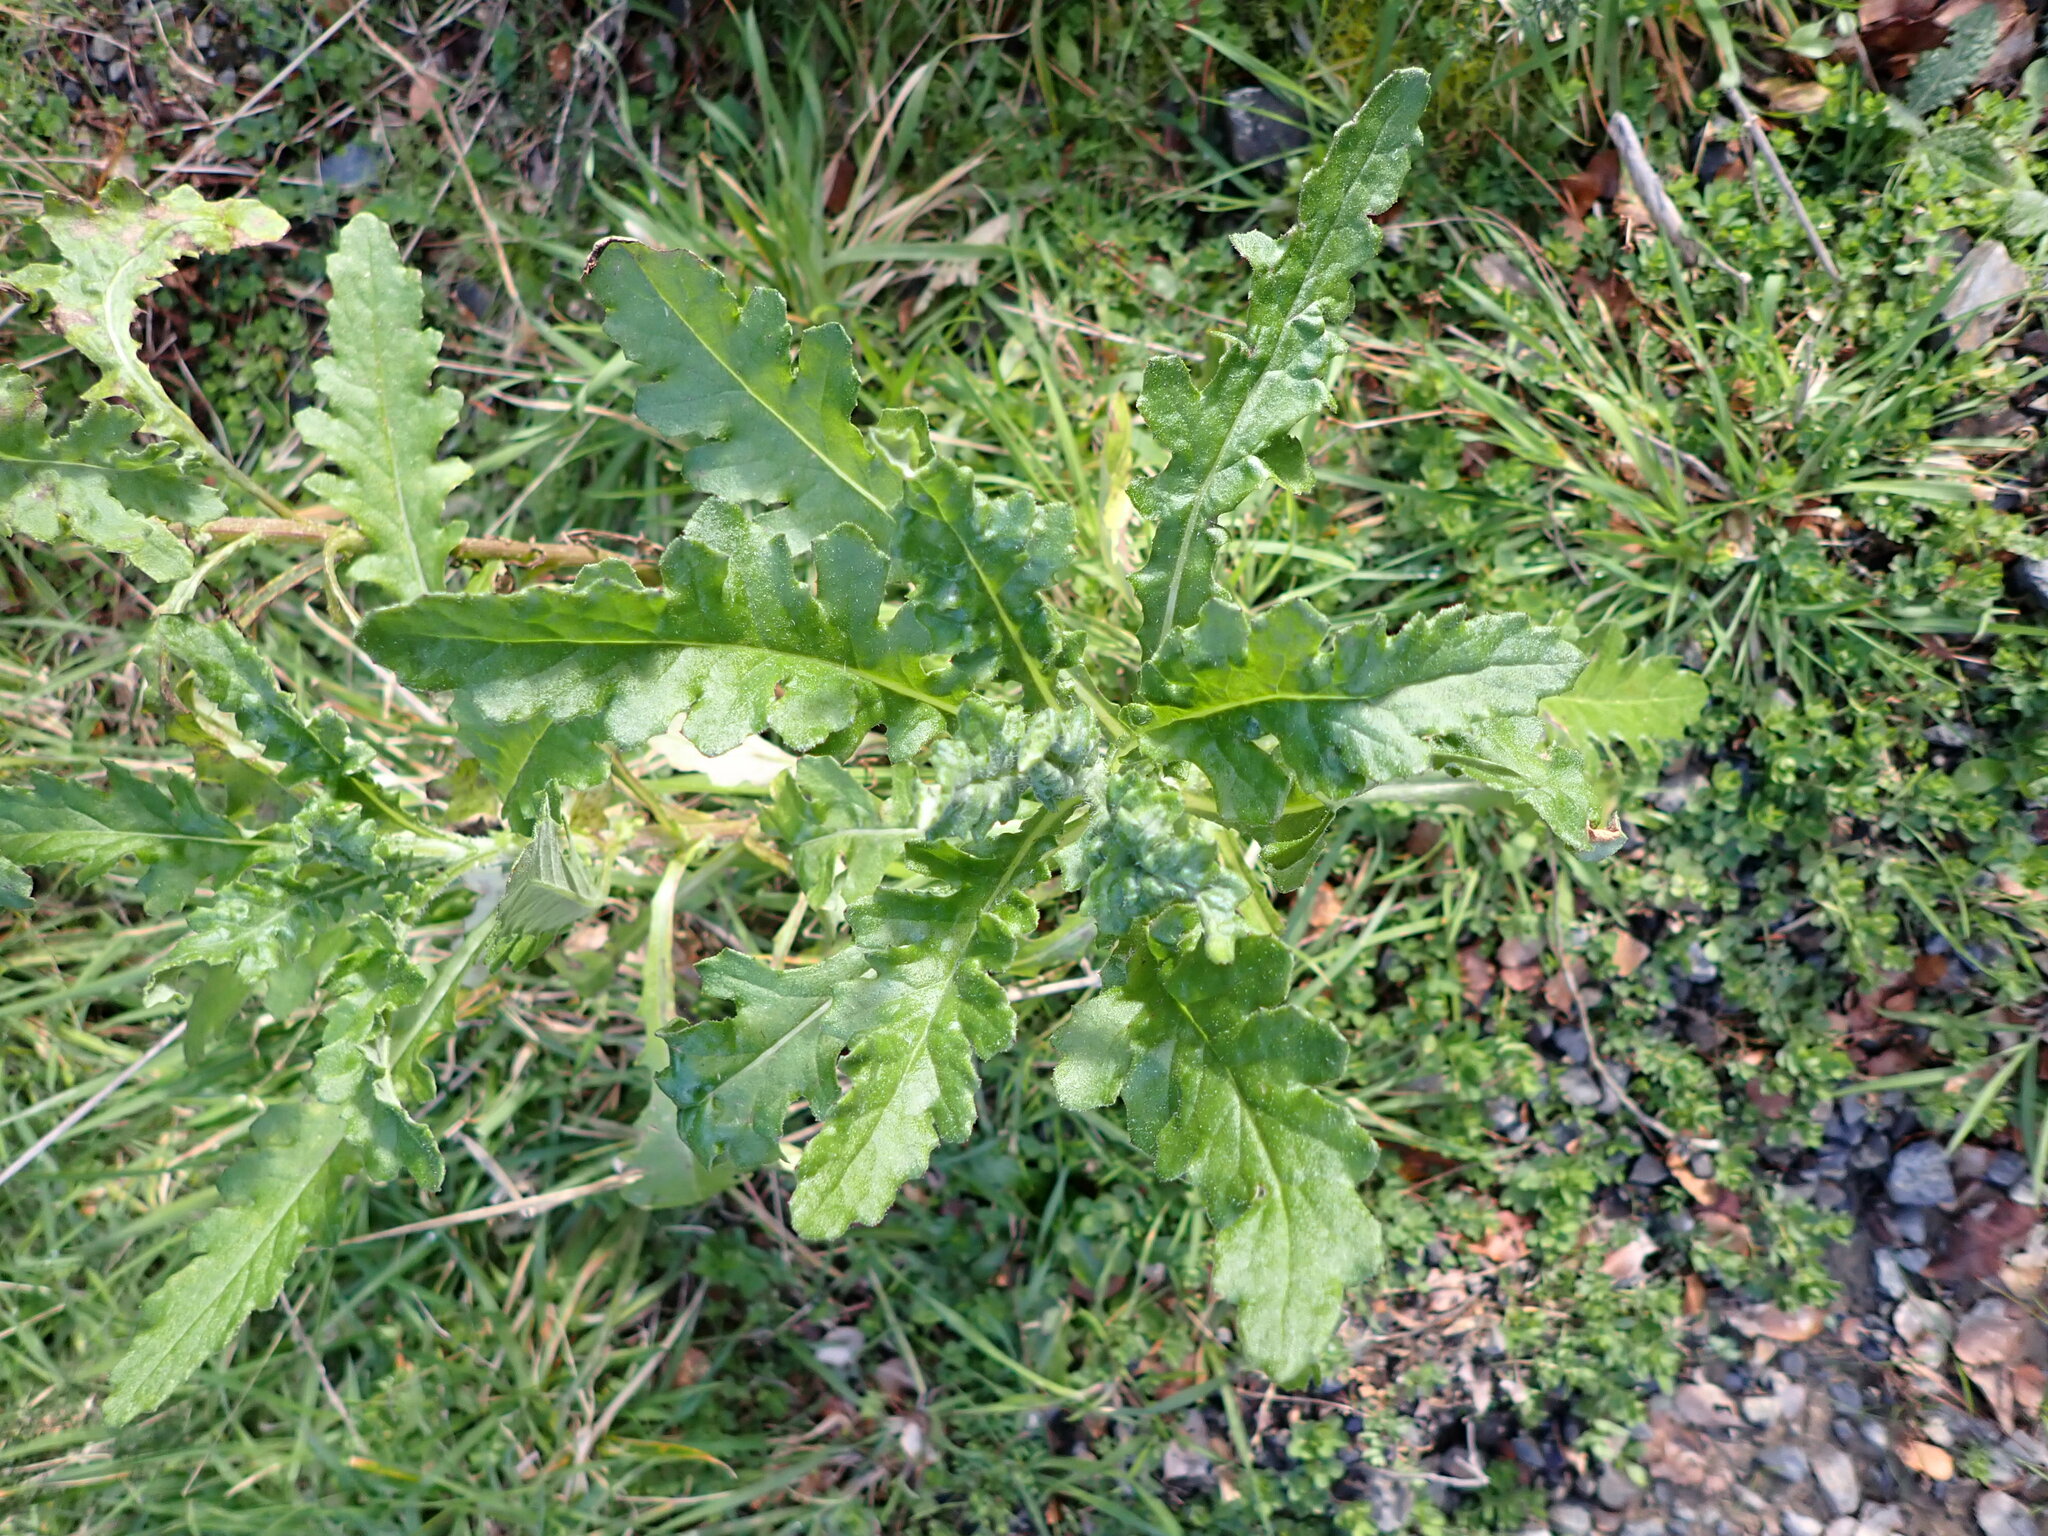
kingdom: Plantae
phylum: Tracheophyta
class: Magnoliopsida
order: Asterales
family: Asteraceae
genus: Senecio
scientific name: Senecio glomeratus
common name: Cutleaf burnweed
